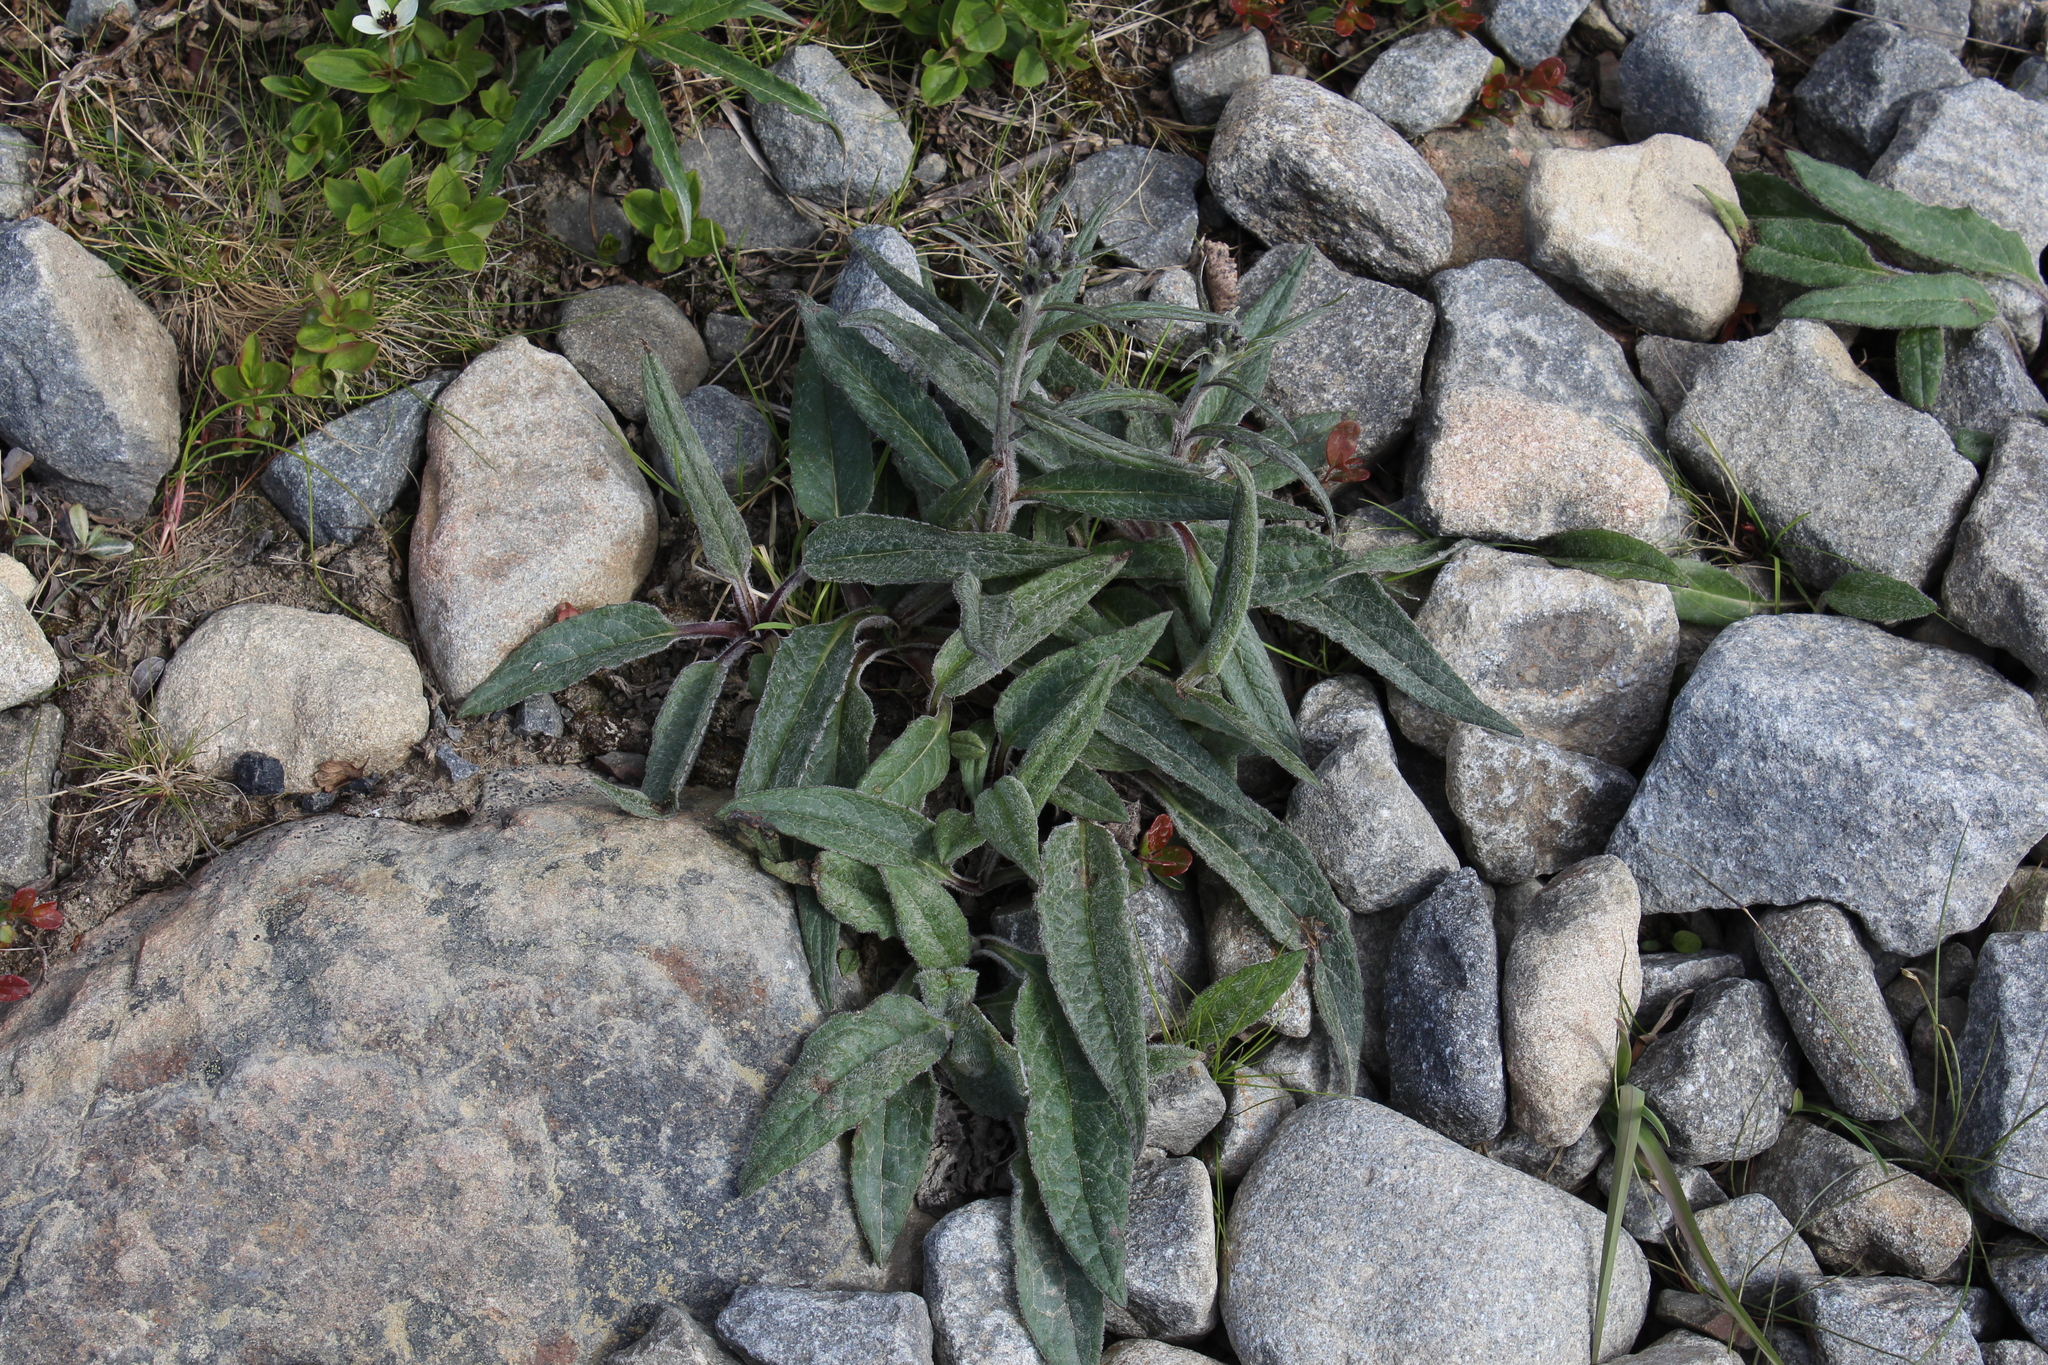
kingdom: Plantae
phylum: Tracheophyta
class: Magnoliopsida
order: Asterales
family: Asteraceae
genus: Saussurea
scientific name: Saussurea alpina
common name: Alpine saw-wort
